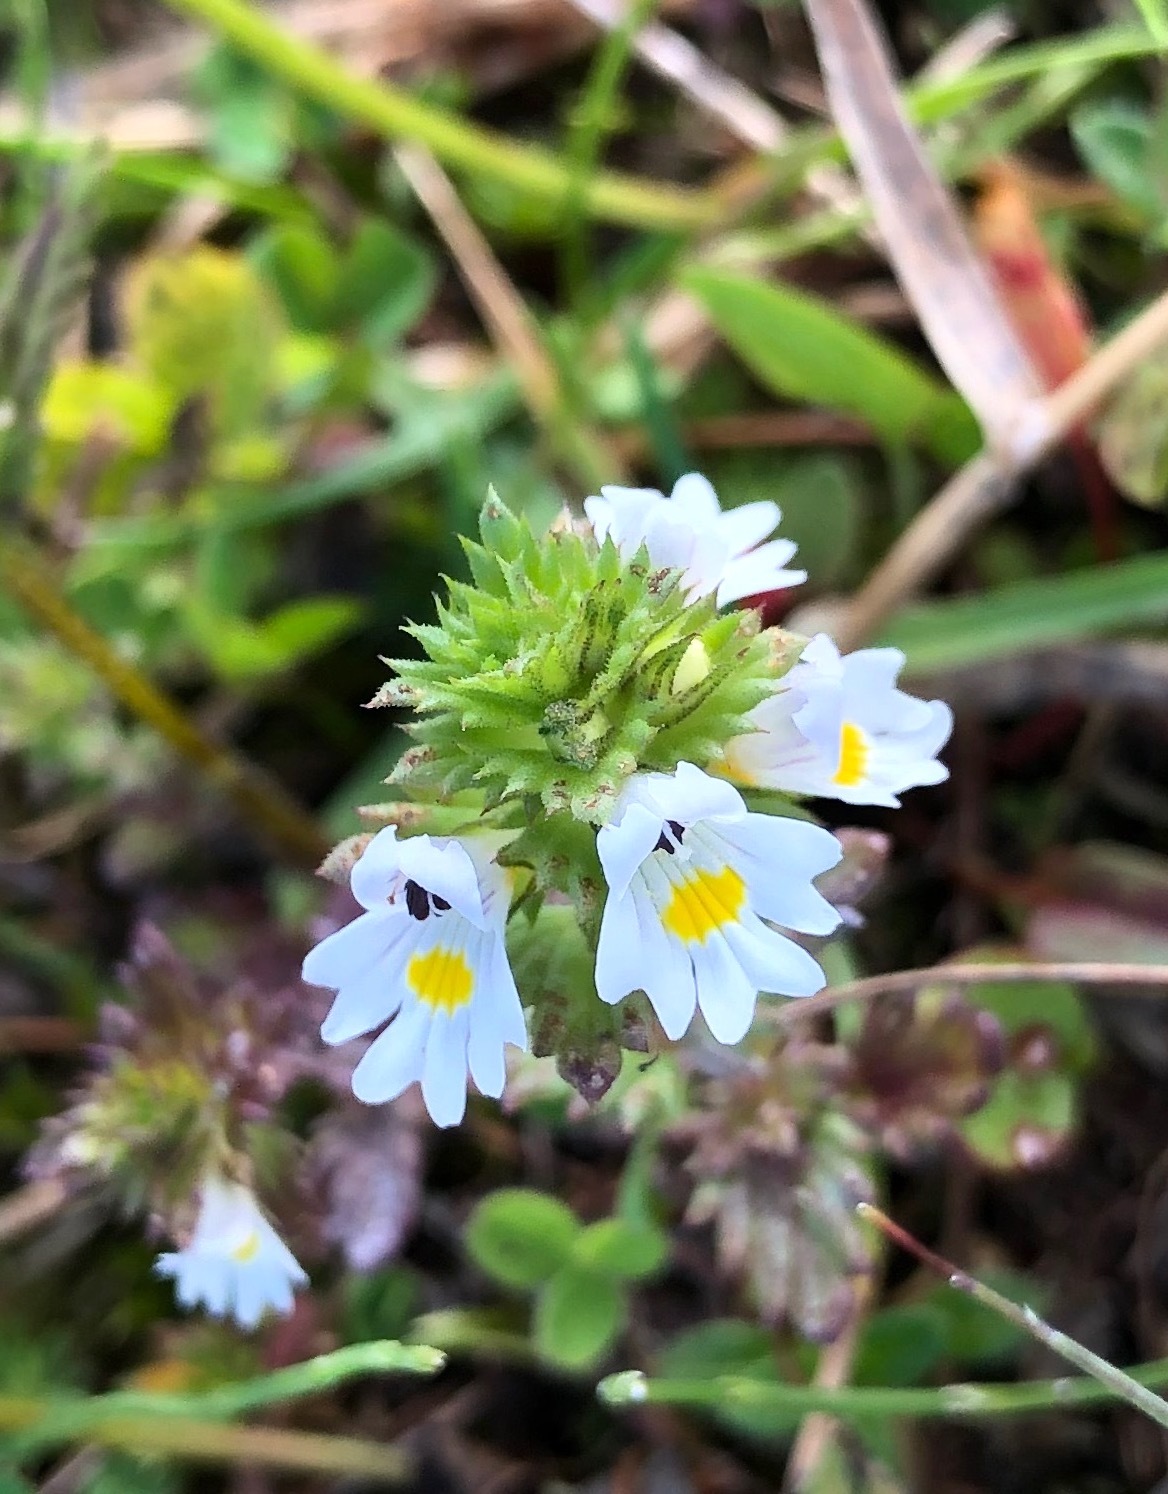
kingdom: Plantae
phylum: Tracheophyta
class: Magnoliopsida
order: Lamiales
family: Orobanchaceae
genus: Euphrasia
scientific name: Euphrasia frigida
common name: An eyebright
